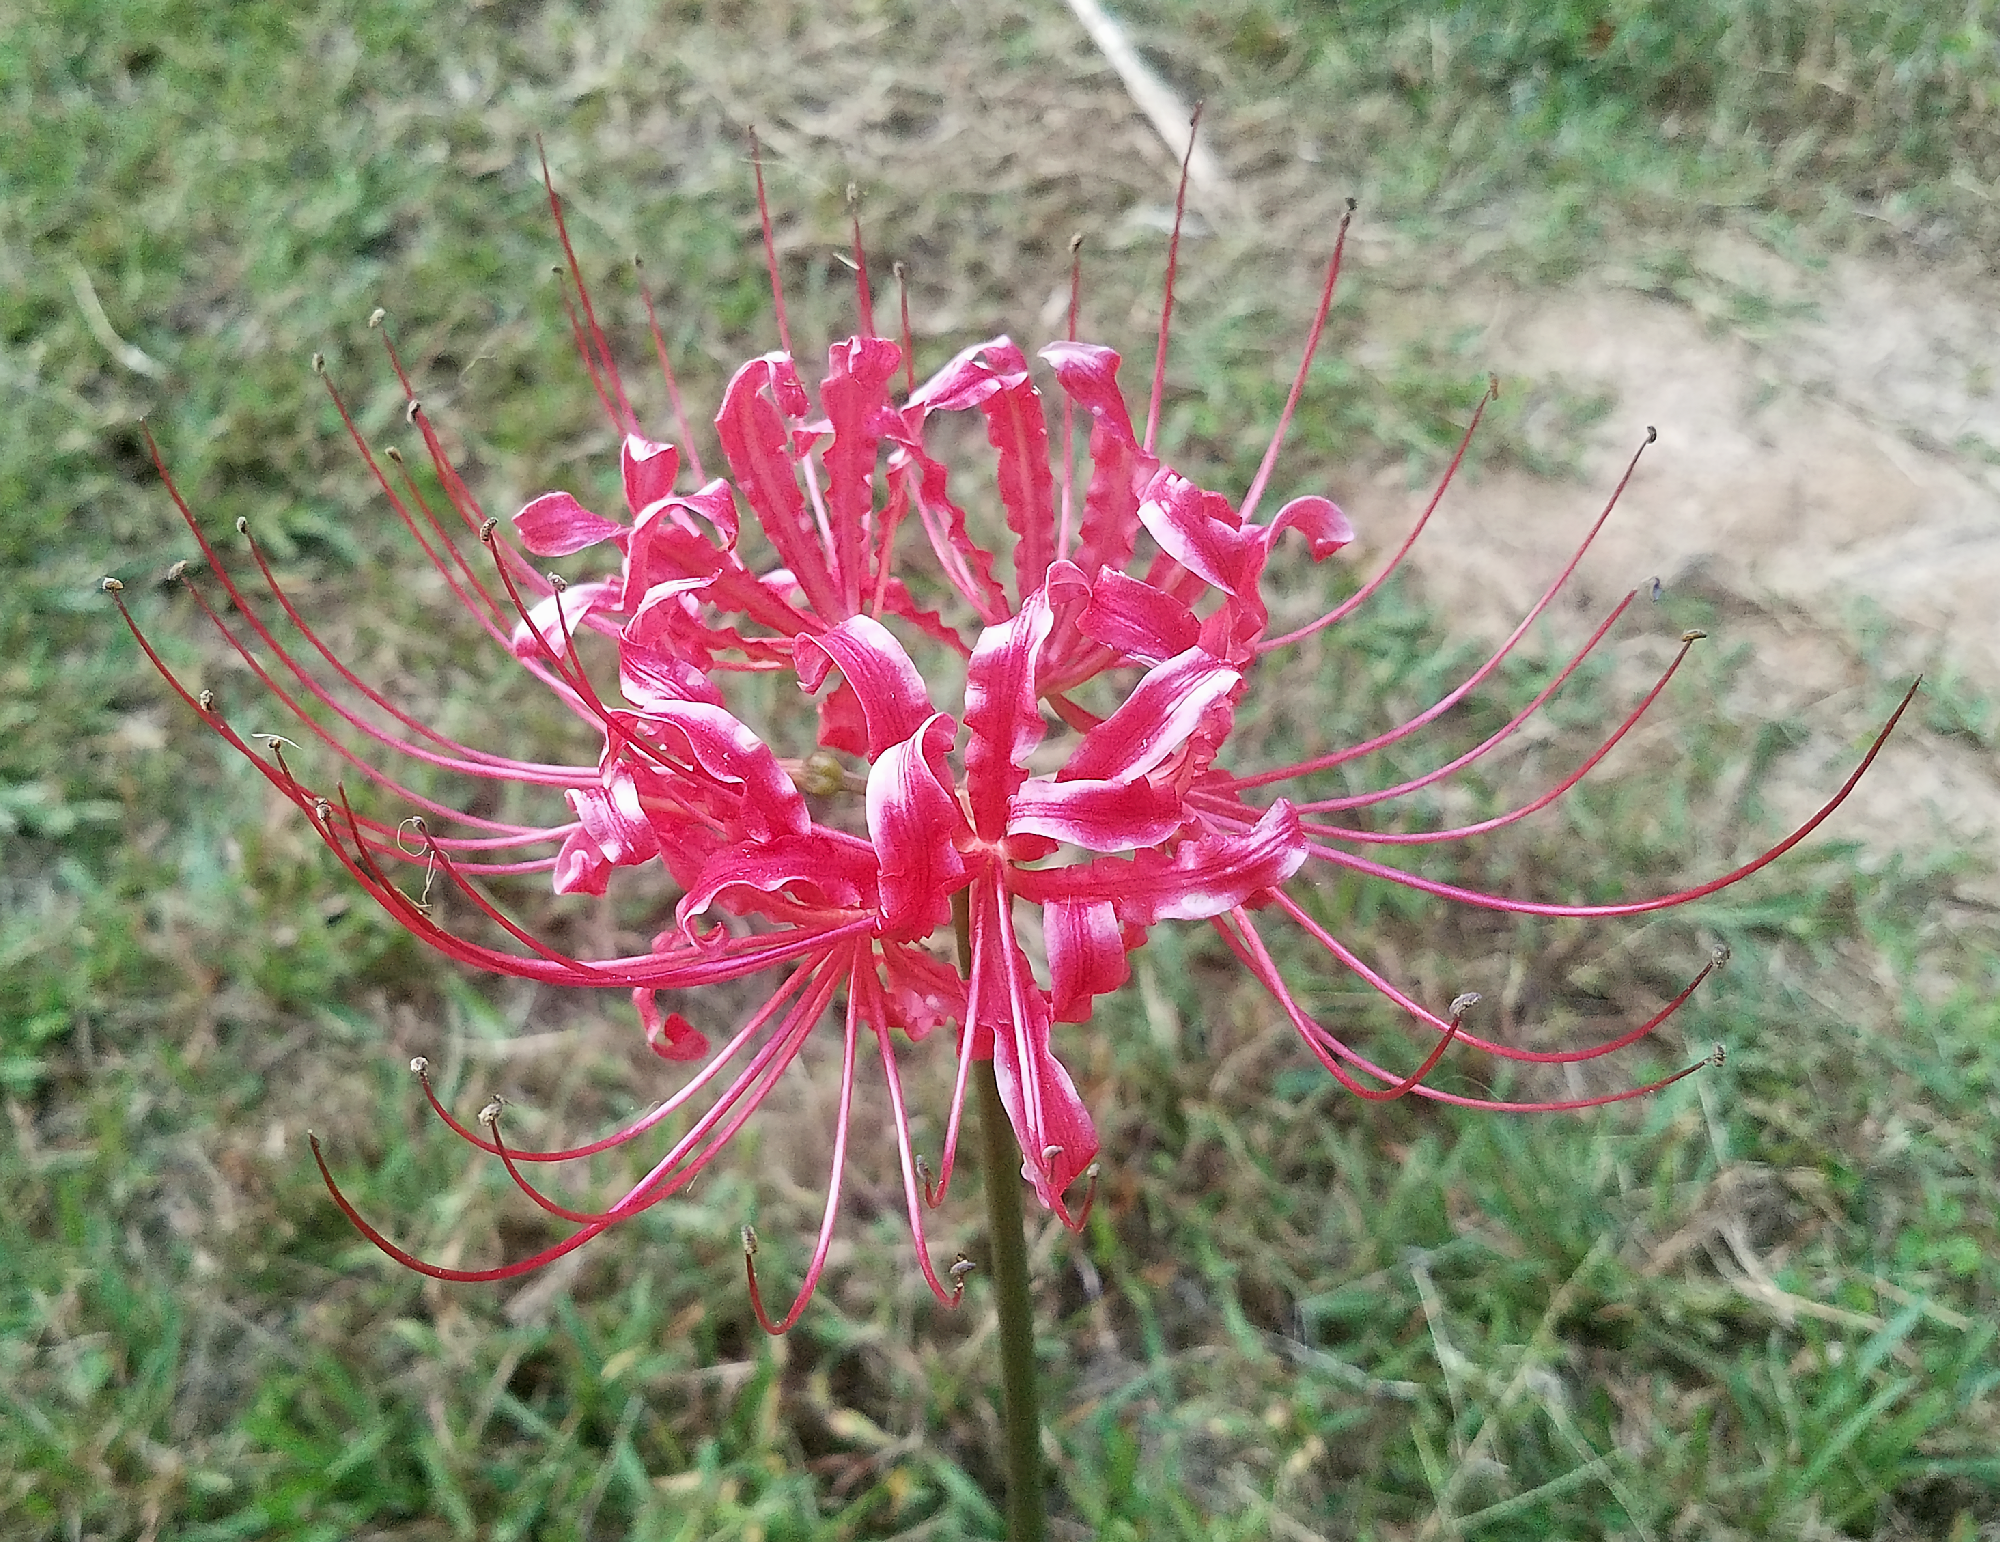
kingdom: Plantae
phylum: Tracheophyta
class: Liliopsida
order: Asparagales
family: Amaryllidaceae
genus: Lycoris
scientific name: Lycoris radiata
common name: Red spider lily
